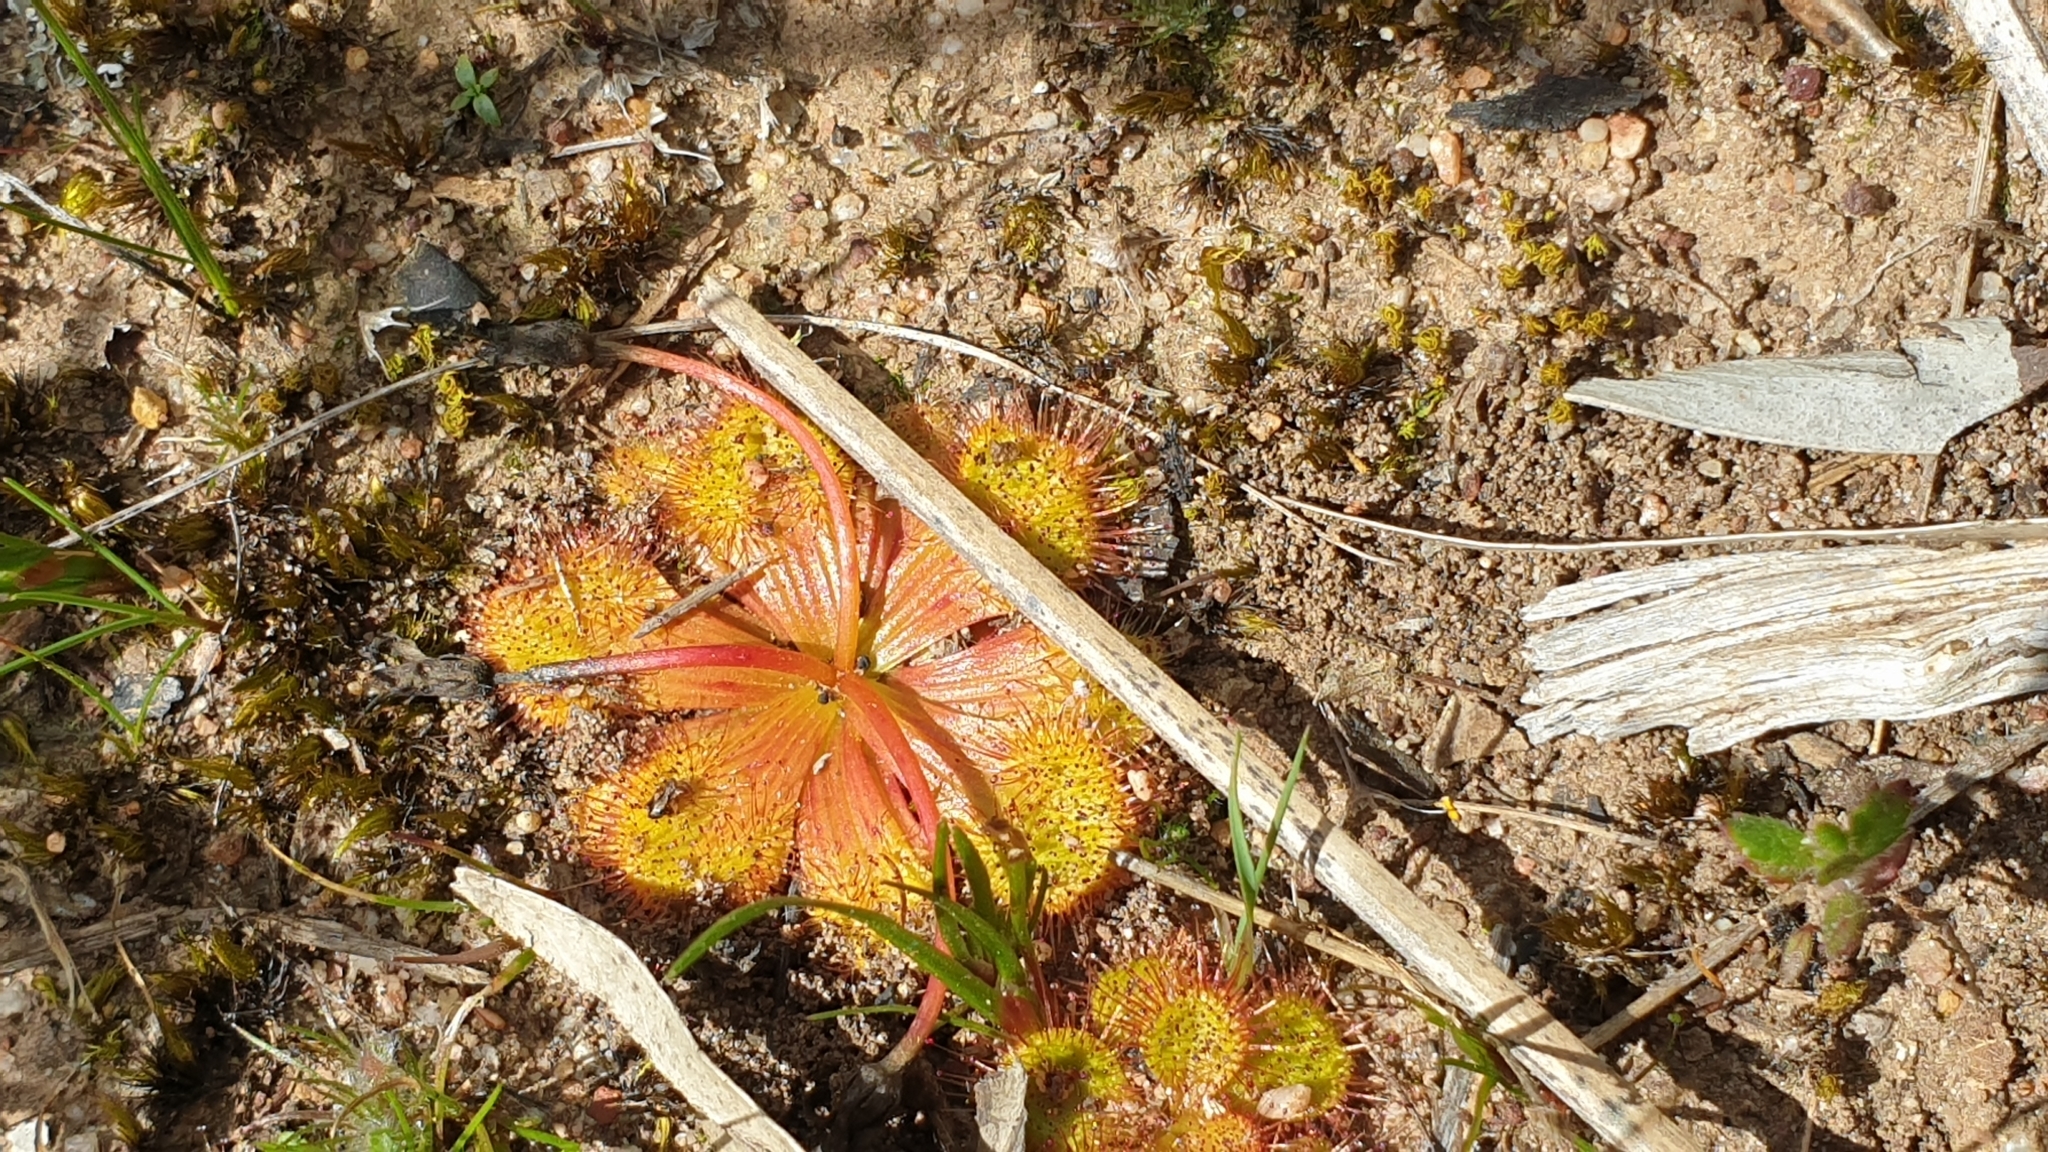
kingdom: Plantae
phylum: Tracheophyta
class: Magnoliopsida
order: Caryophyllales
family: Droseraceae
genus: Drosera
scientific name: Drosera whittakeri
